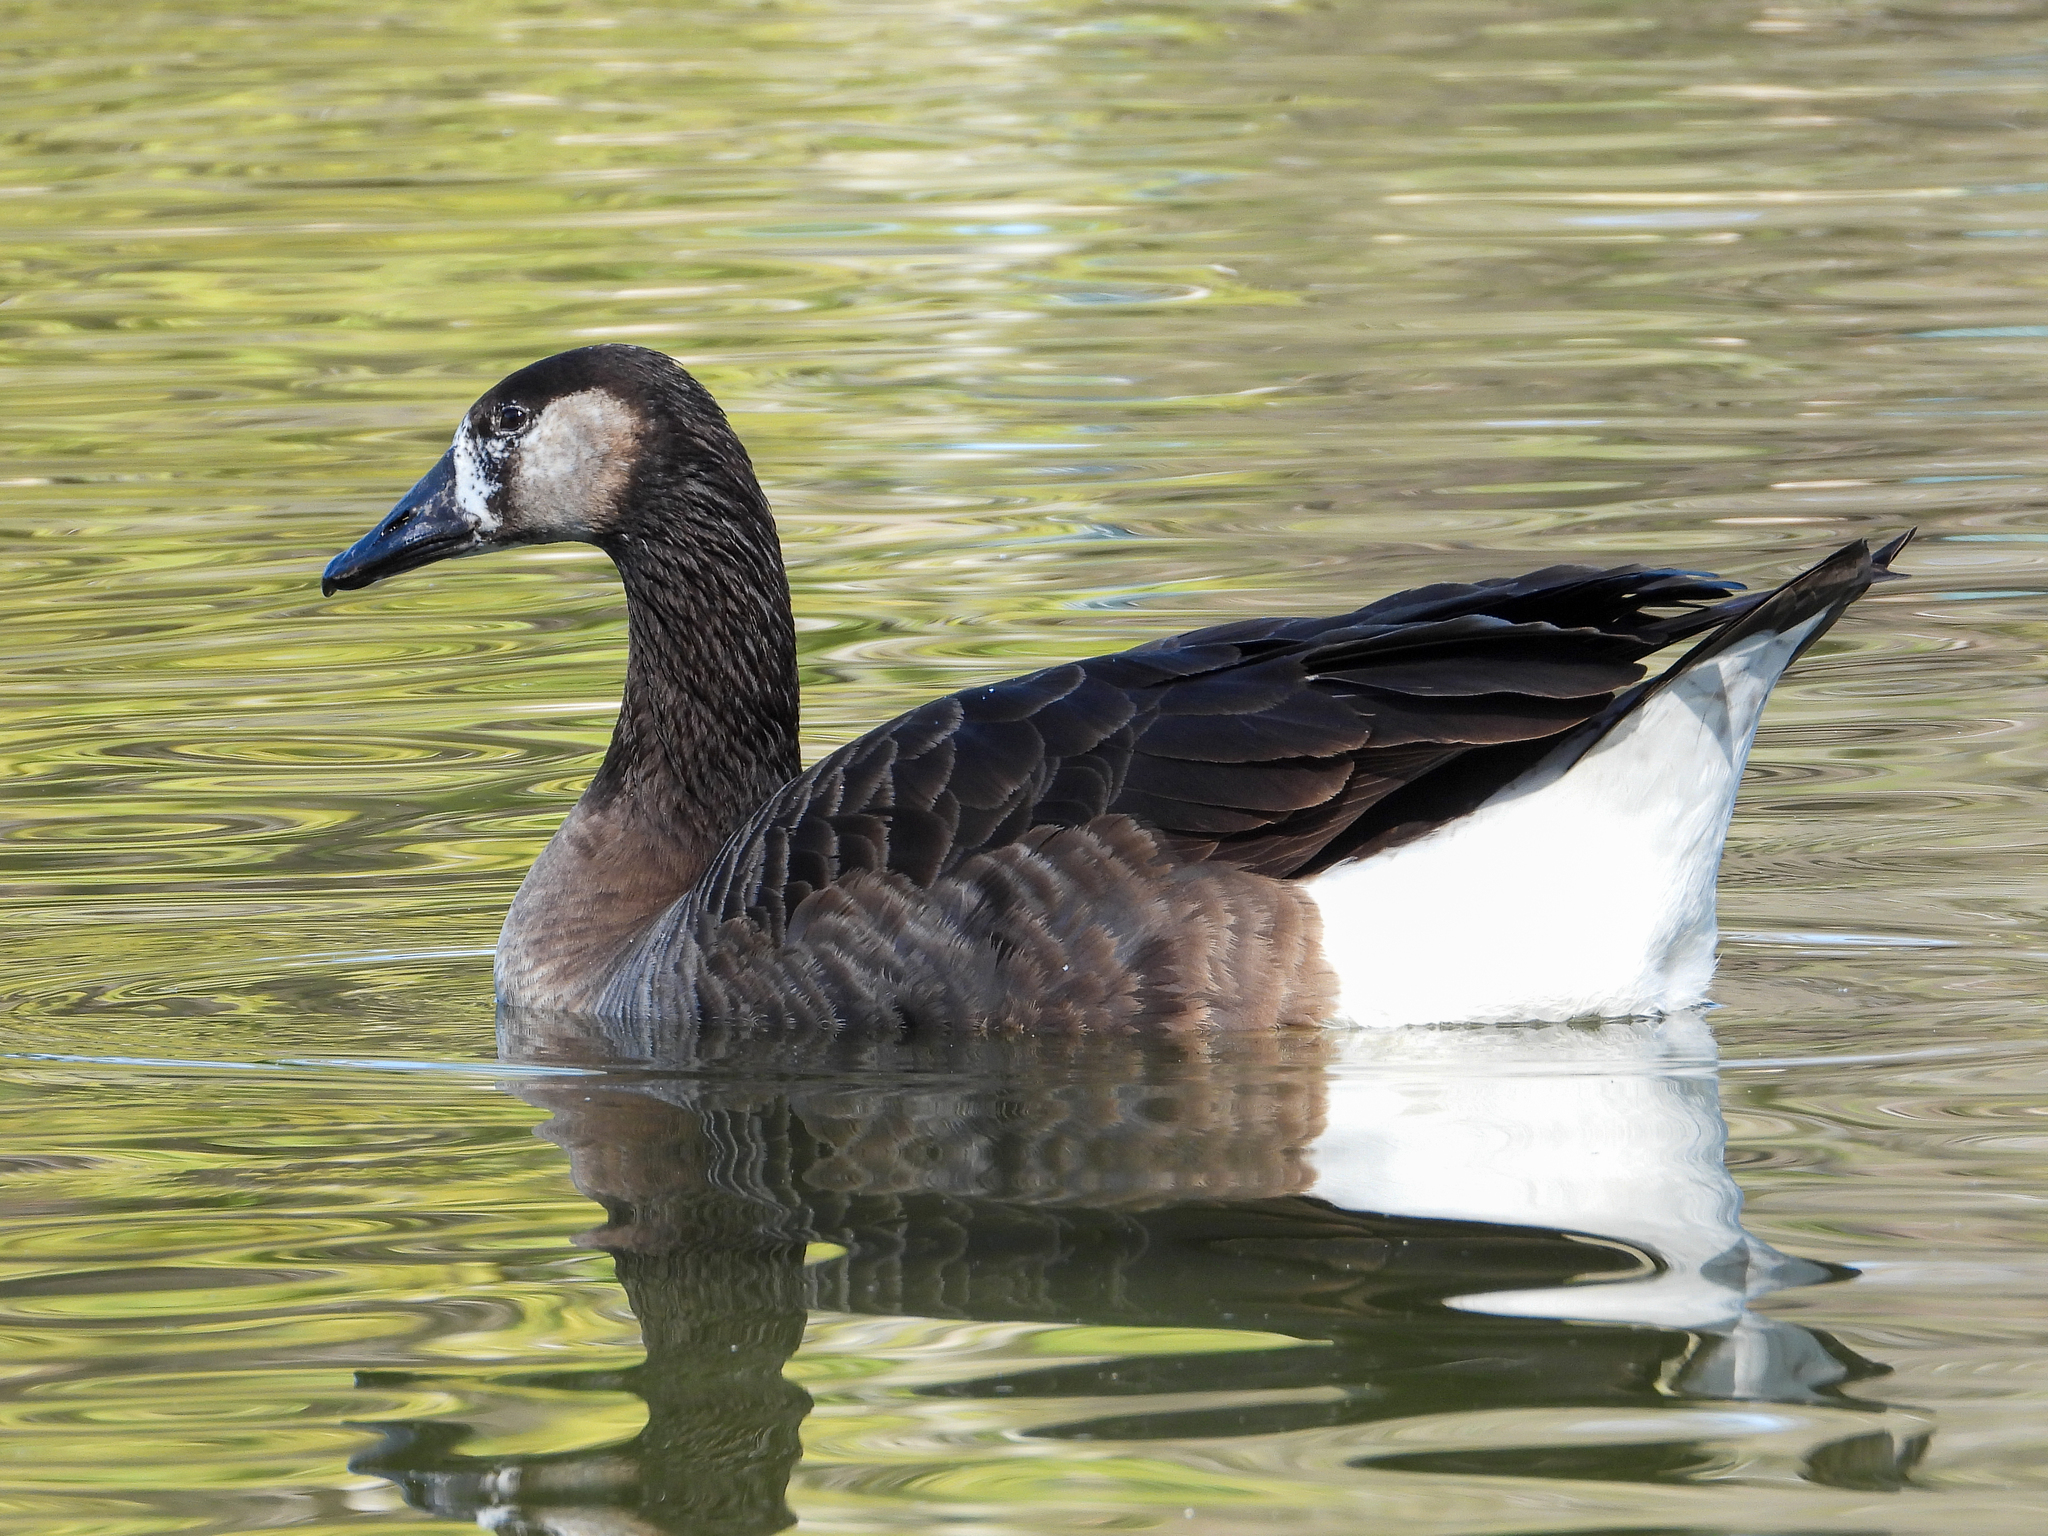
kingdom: Animalia
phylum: Chordata
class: Aves
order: Anseriformes
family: Anatidae
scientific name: Anatidae
